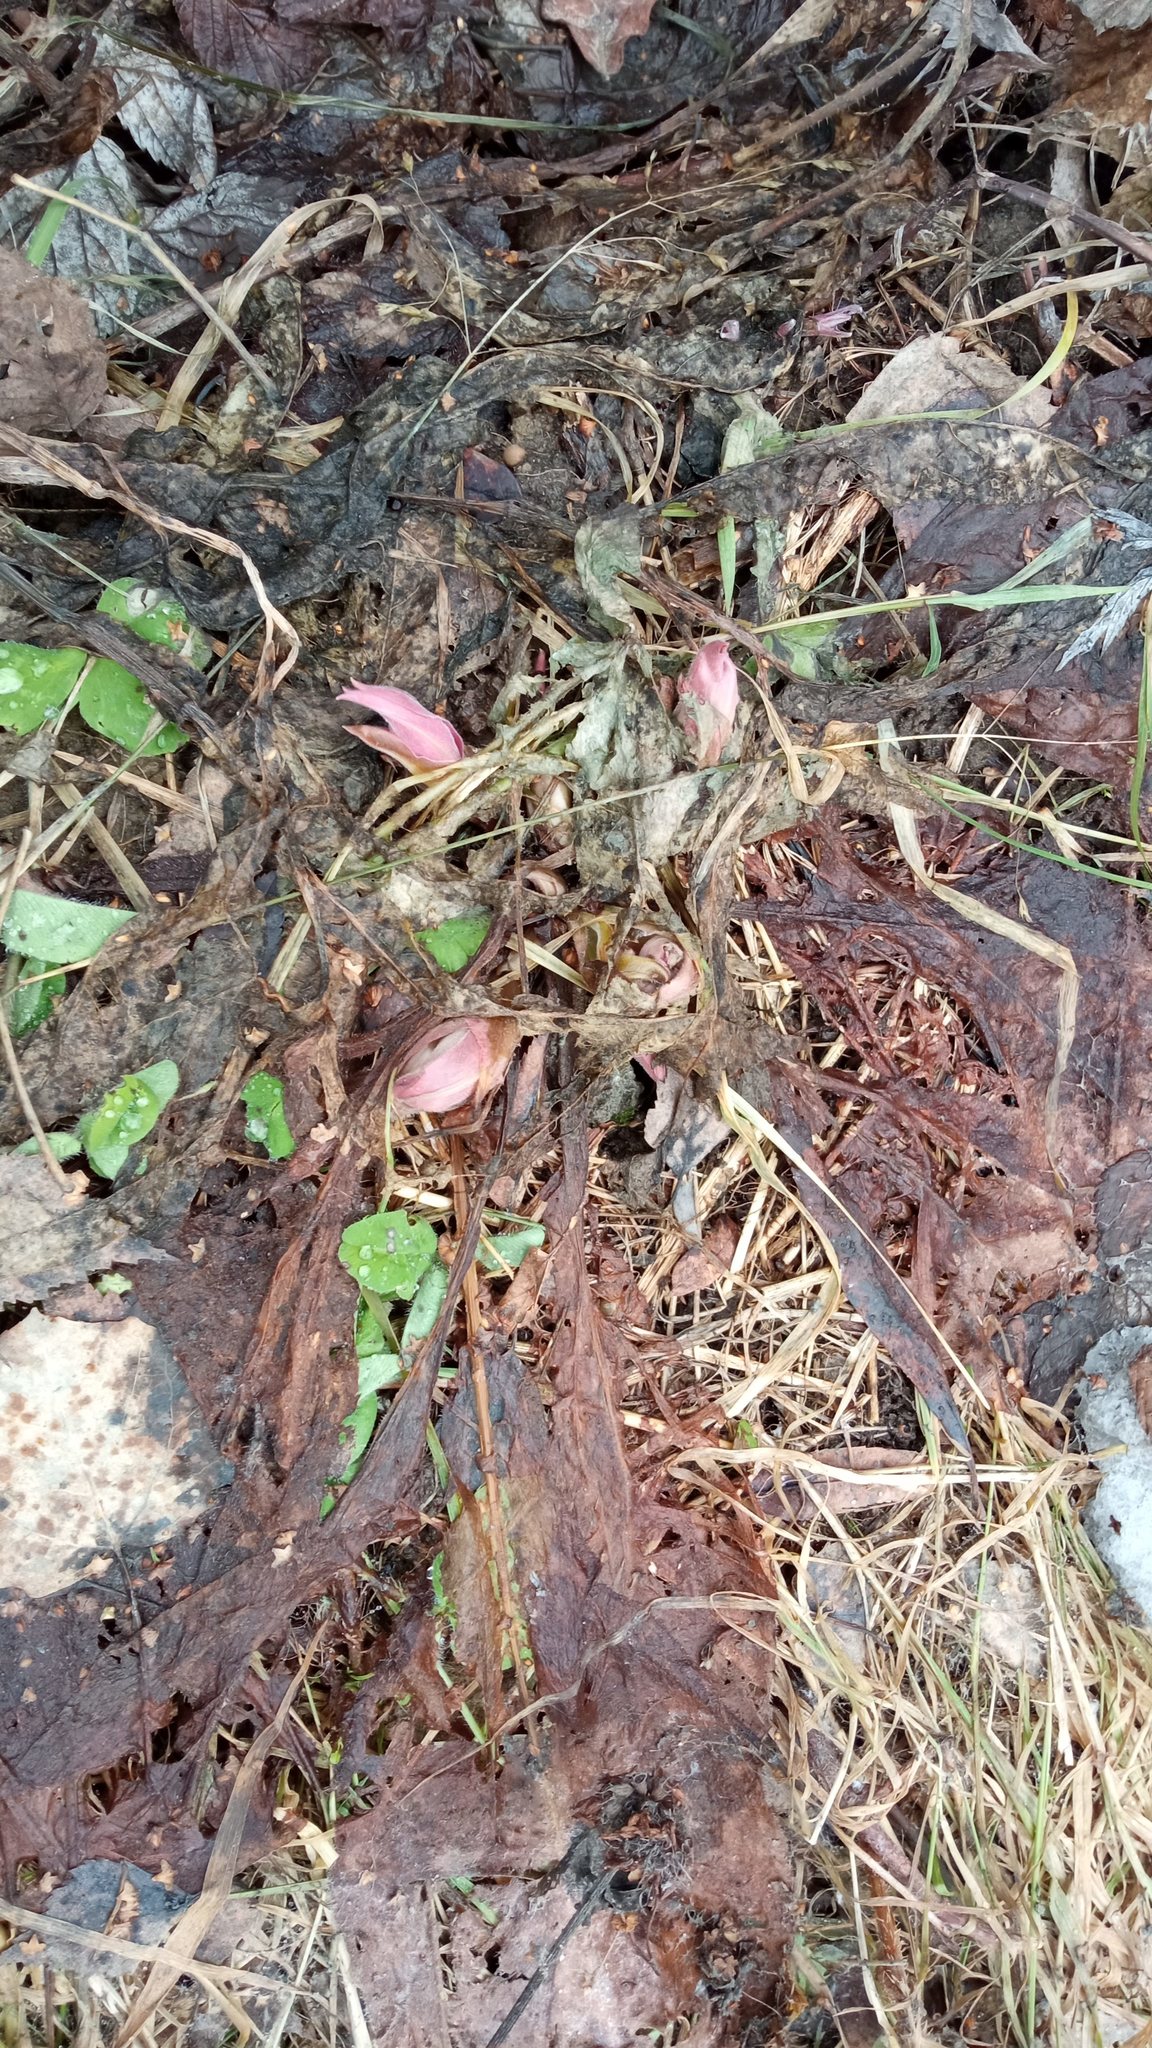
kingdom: Plantae
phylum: Tracheophyta
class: Magnoliopsida
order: Boraginales
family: Boraginaceae
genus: Pulmonaria
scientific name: Pulmonaria mollis
